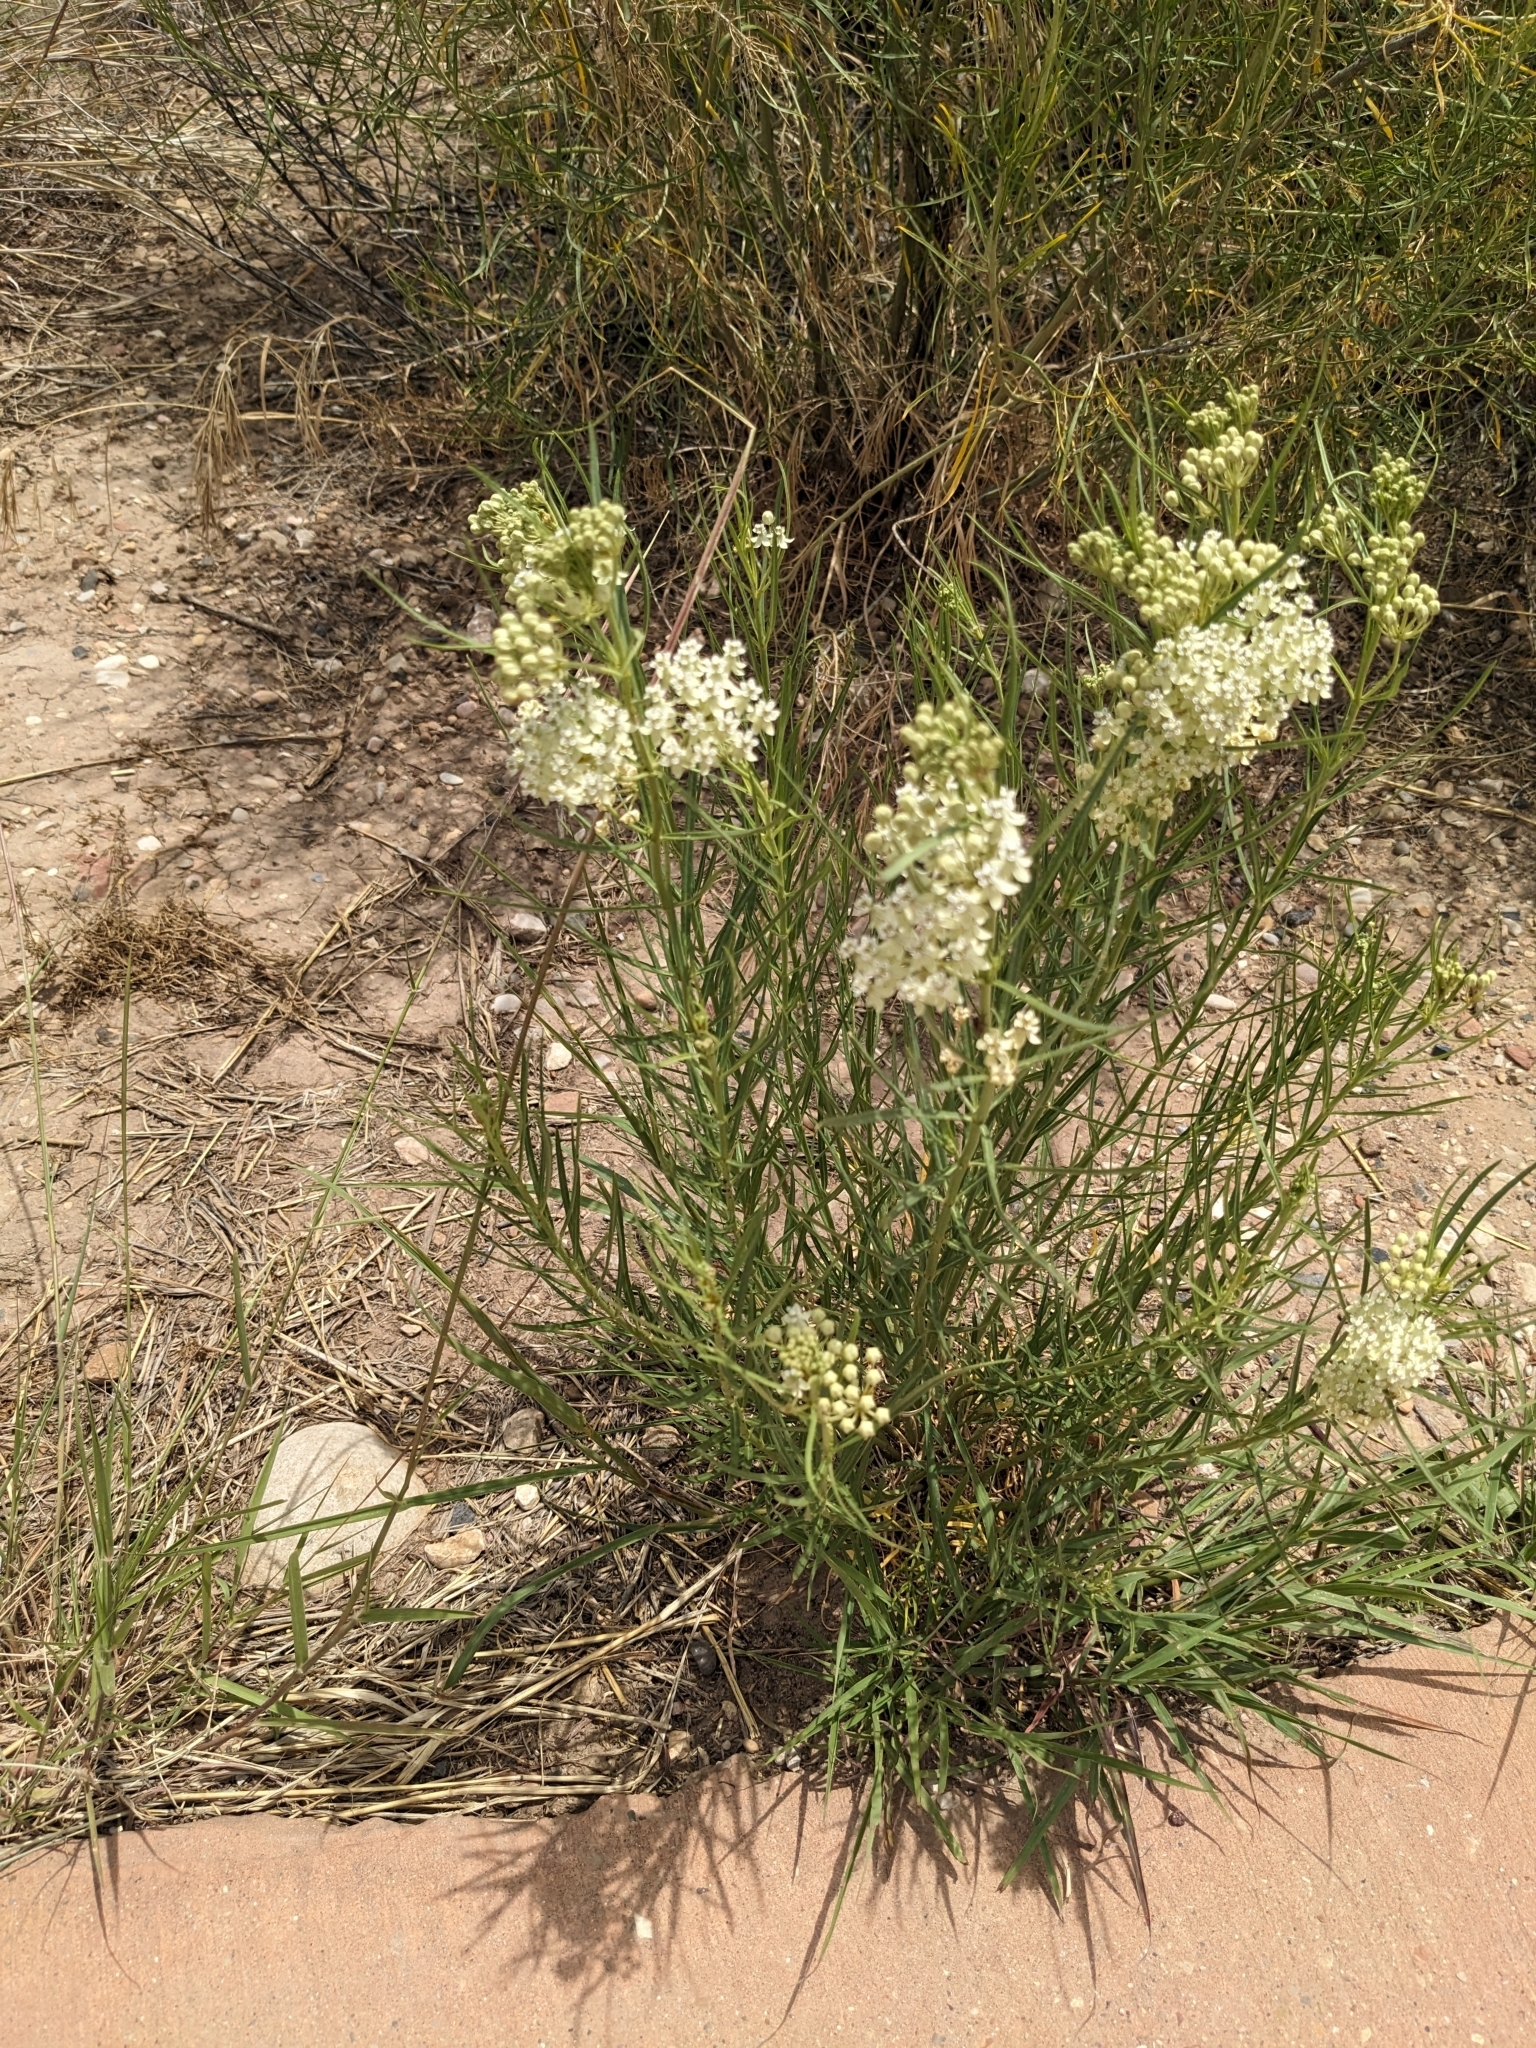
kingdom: Plantae
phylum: Tracheophyta
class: Magnoliopsida
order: Gentianales
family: Apocynaceae
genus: Asclepias
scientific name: Asclepias subverticillata
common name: Horsetail milkweed
